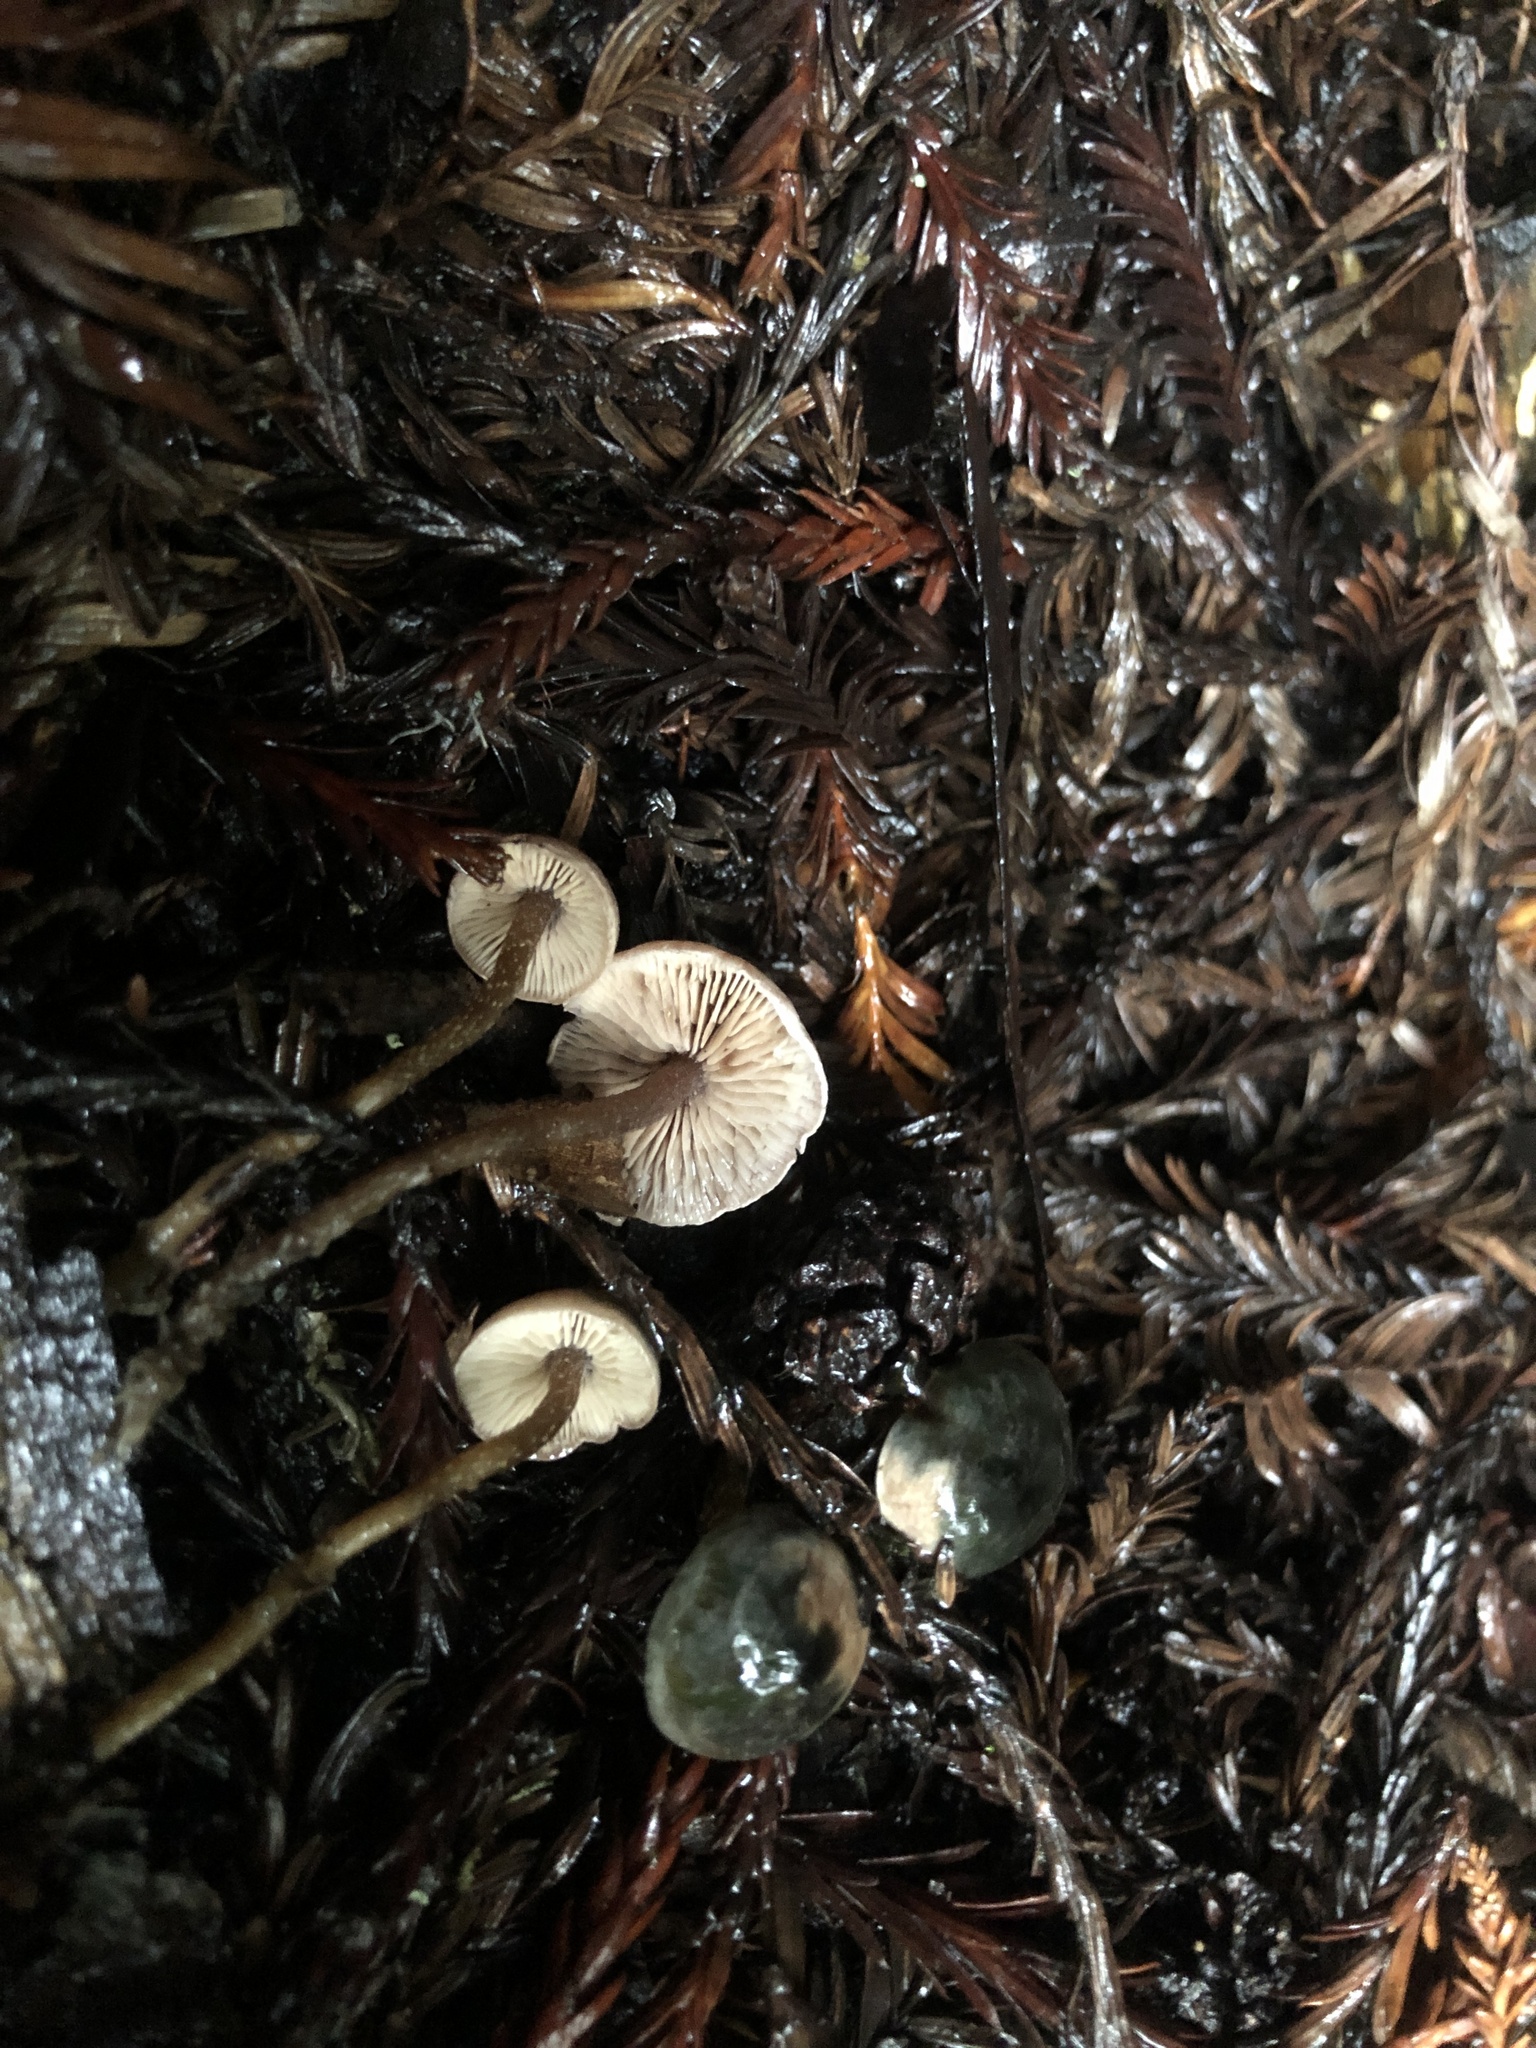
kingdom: Fungi
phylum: Basidiomycota
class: Agaricomycetes
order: Agaricales
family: Tricholomataceae
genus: Pseudobaeospora
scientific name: Pseudobaeospora stevensii
